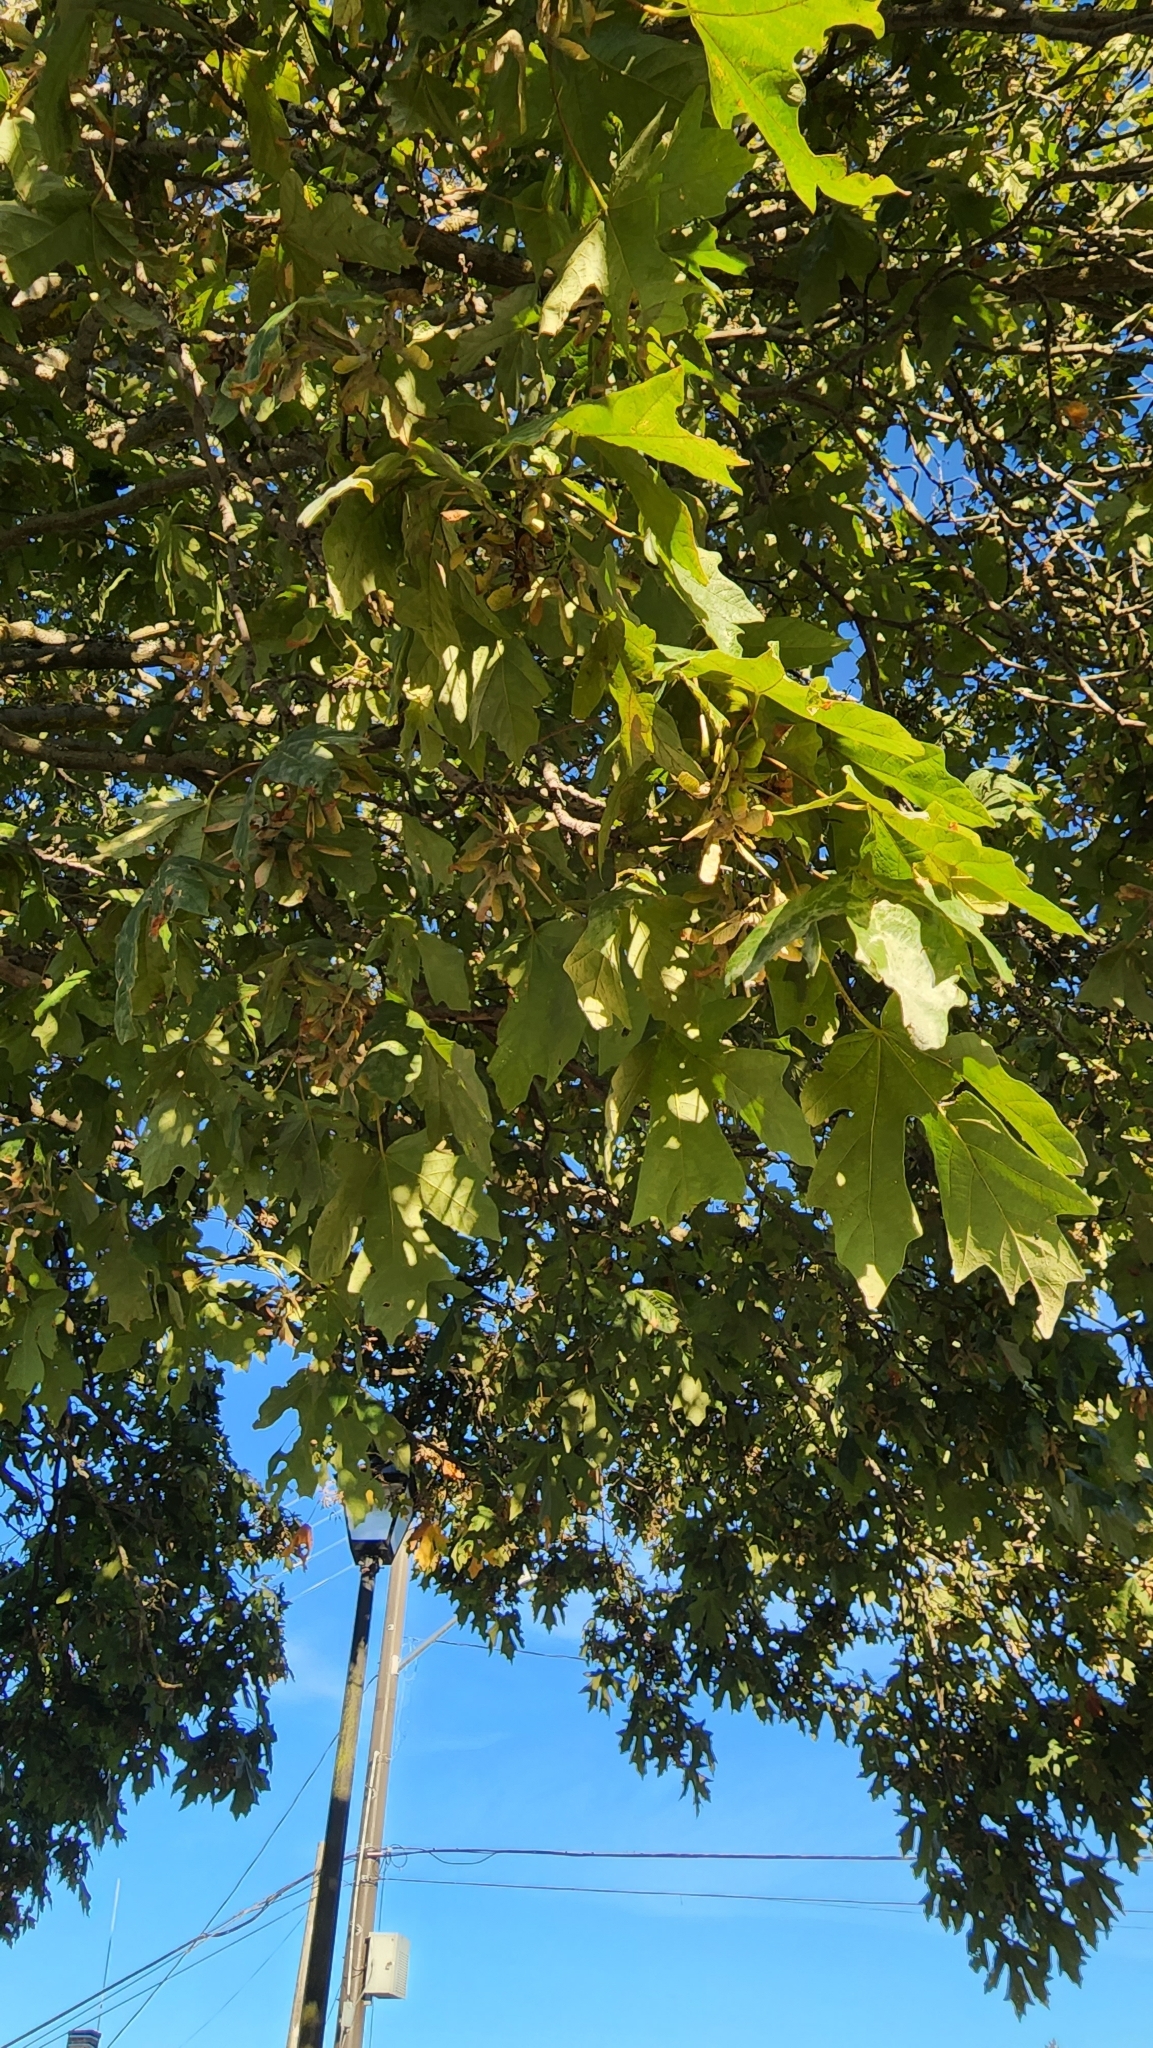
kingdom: Plantae
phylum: Tracheophyta
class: Magnoliopsida
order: Sapindales
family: Sapindaceae
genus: Acer
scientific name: Acer macrophyllum
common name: Oregon maple
